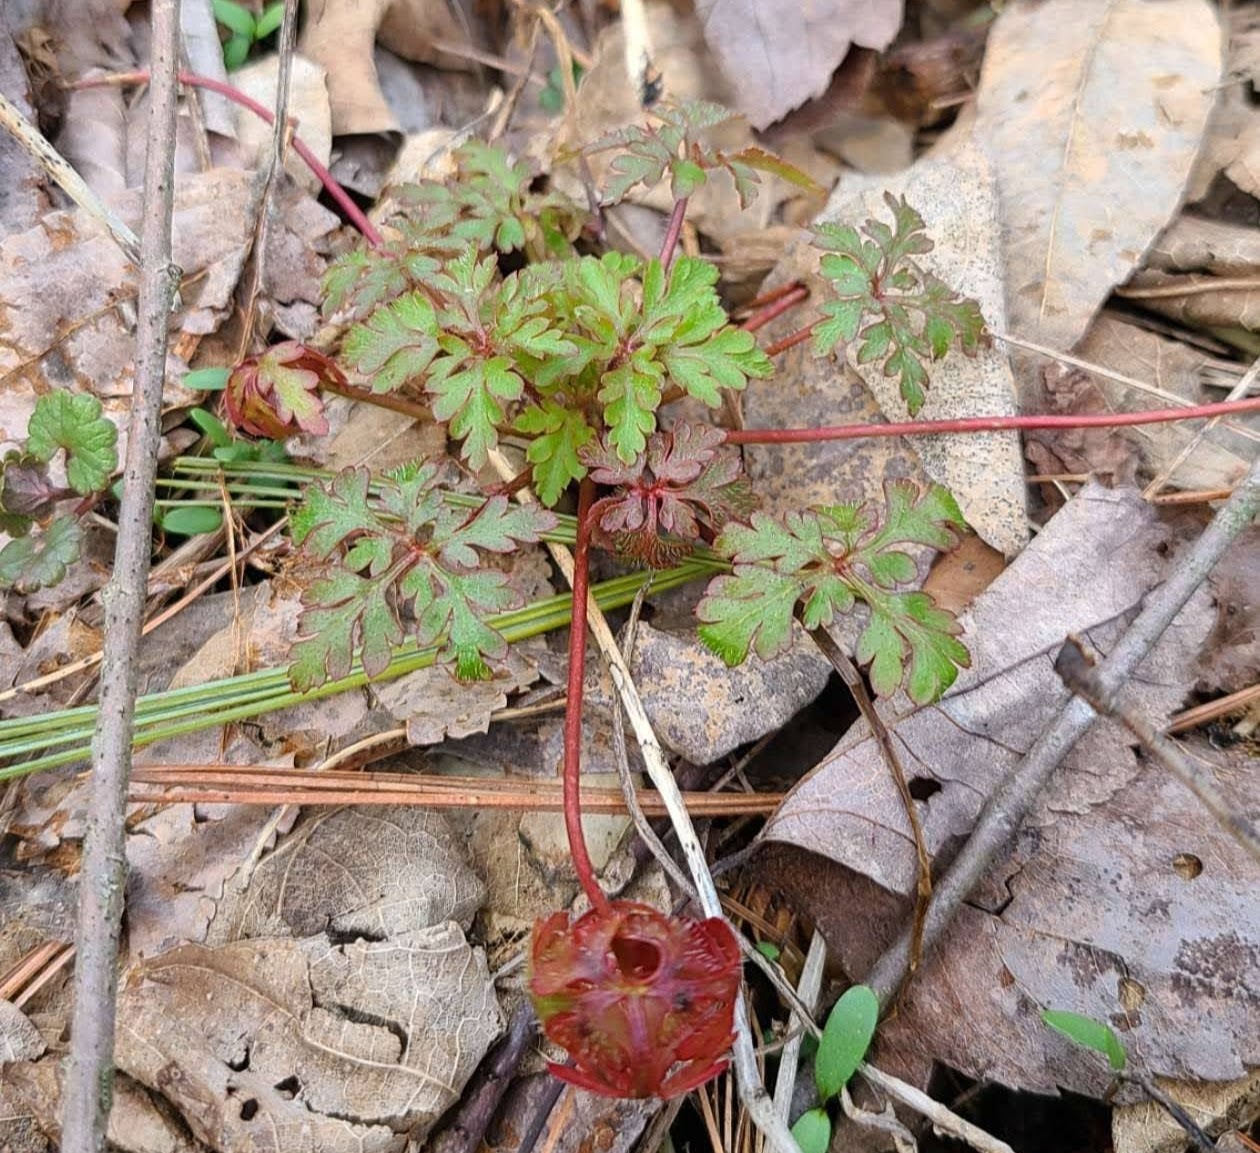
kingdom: Plantae
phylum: Tracheophyta
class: Magnoliopsida
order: Geraniales
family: Geraniaceae
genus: Geranium
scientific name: Geranium robertianum
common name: Herb-robert
